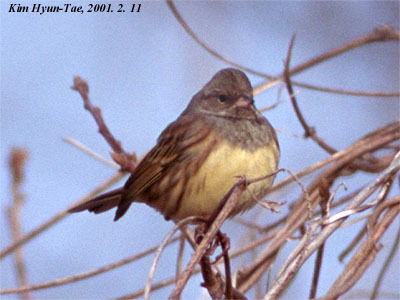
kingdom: Animalia
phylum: Chordata
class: Aves
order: Passeriformes
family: Emberizidae
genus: Emberiza
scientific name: Emberiza spodocephala
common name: Black-faced bunting
